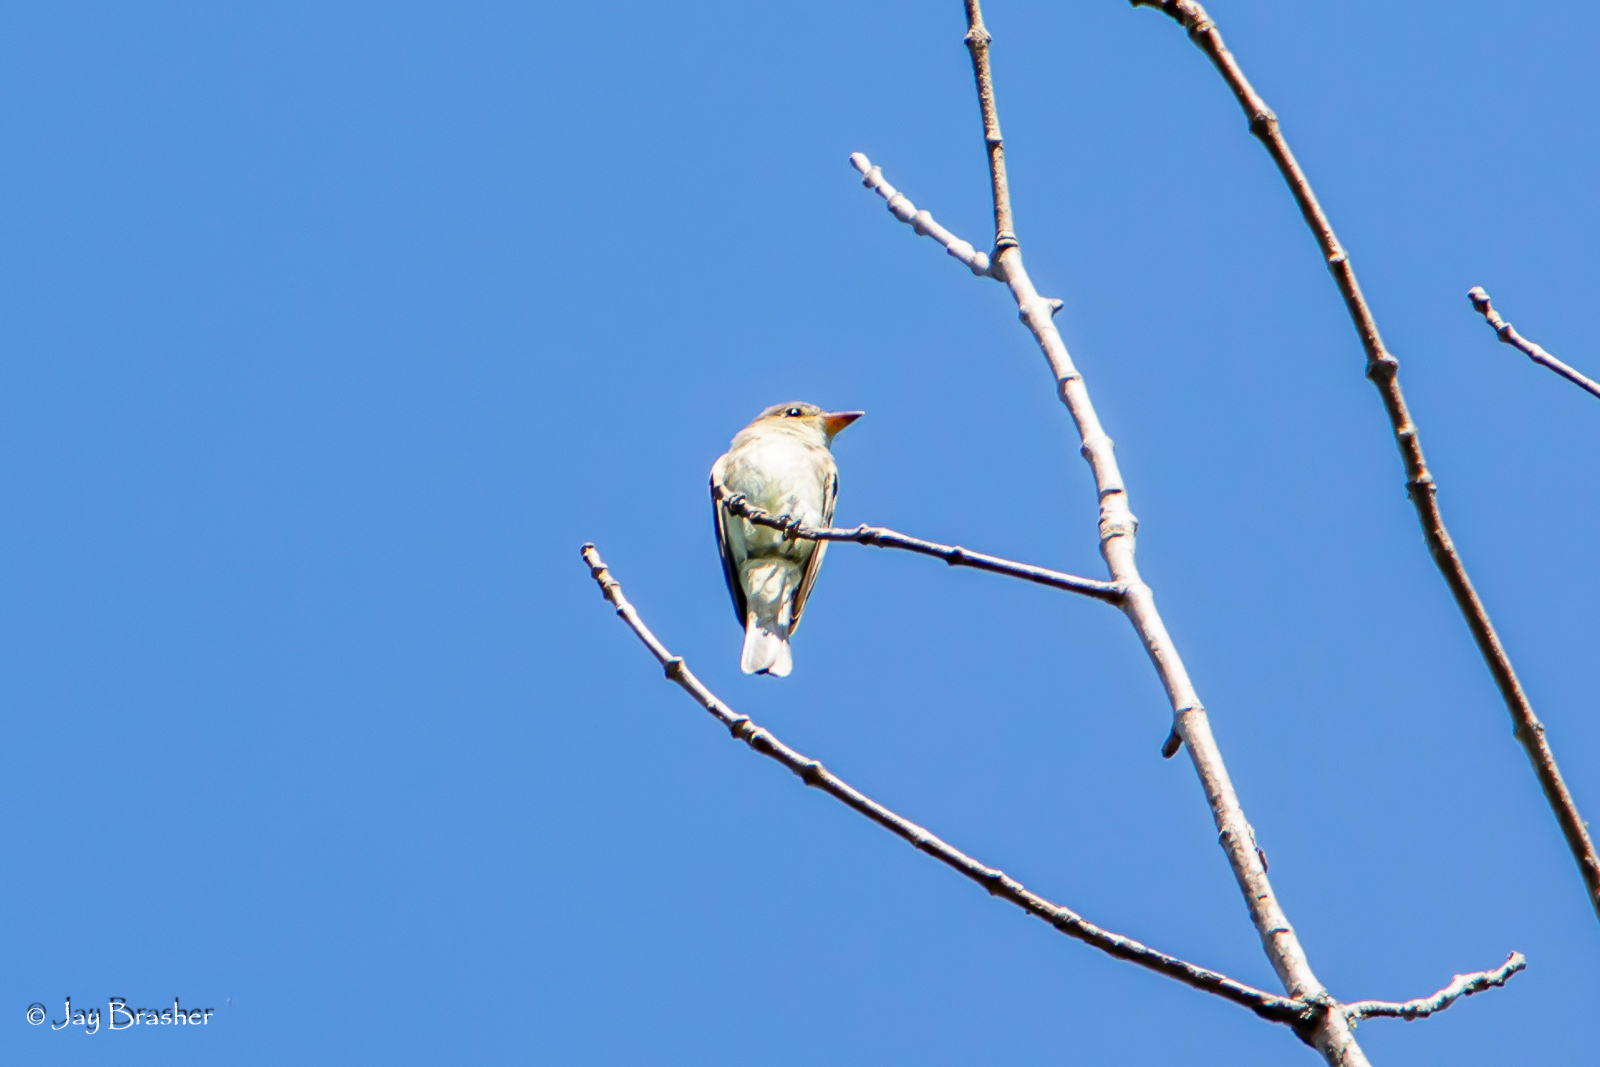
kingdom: Animalia
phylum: Chordata
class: Aves
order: Passeriformes
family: Tyrannidae
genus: Contopus
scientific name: Contopus virens
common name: Eastern wood-pewee
